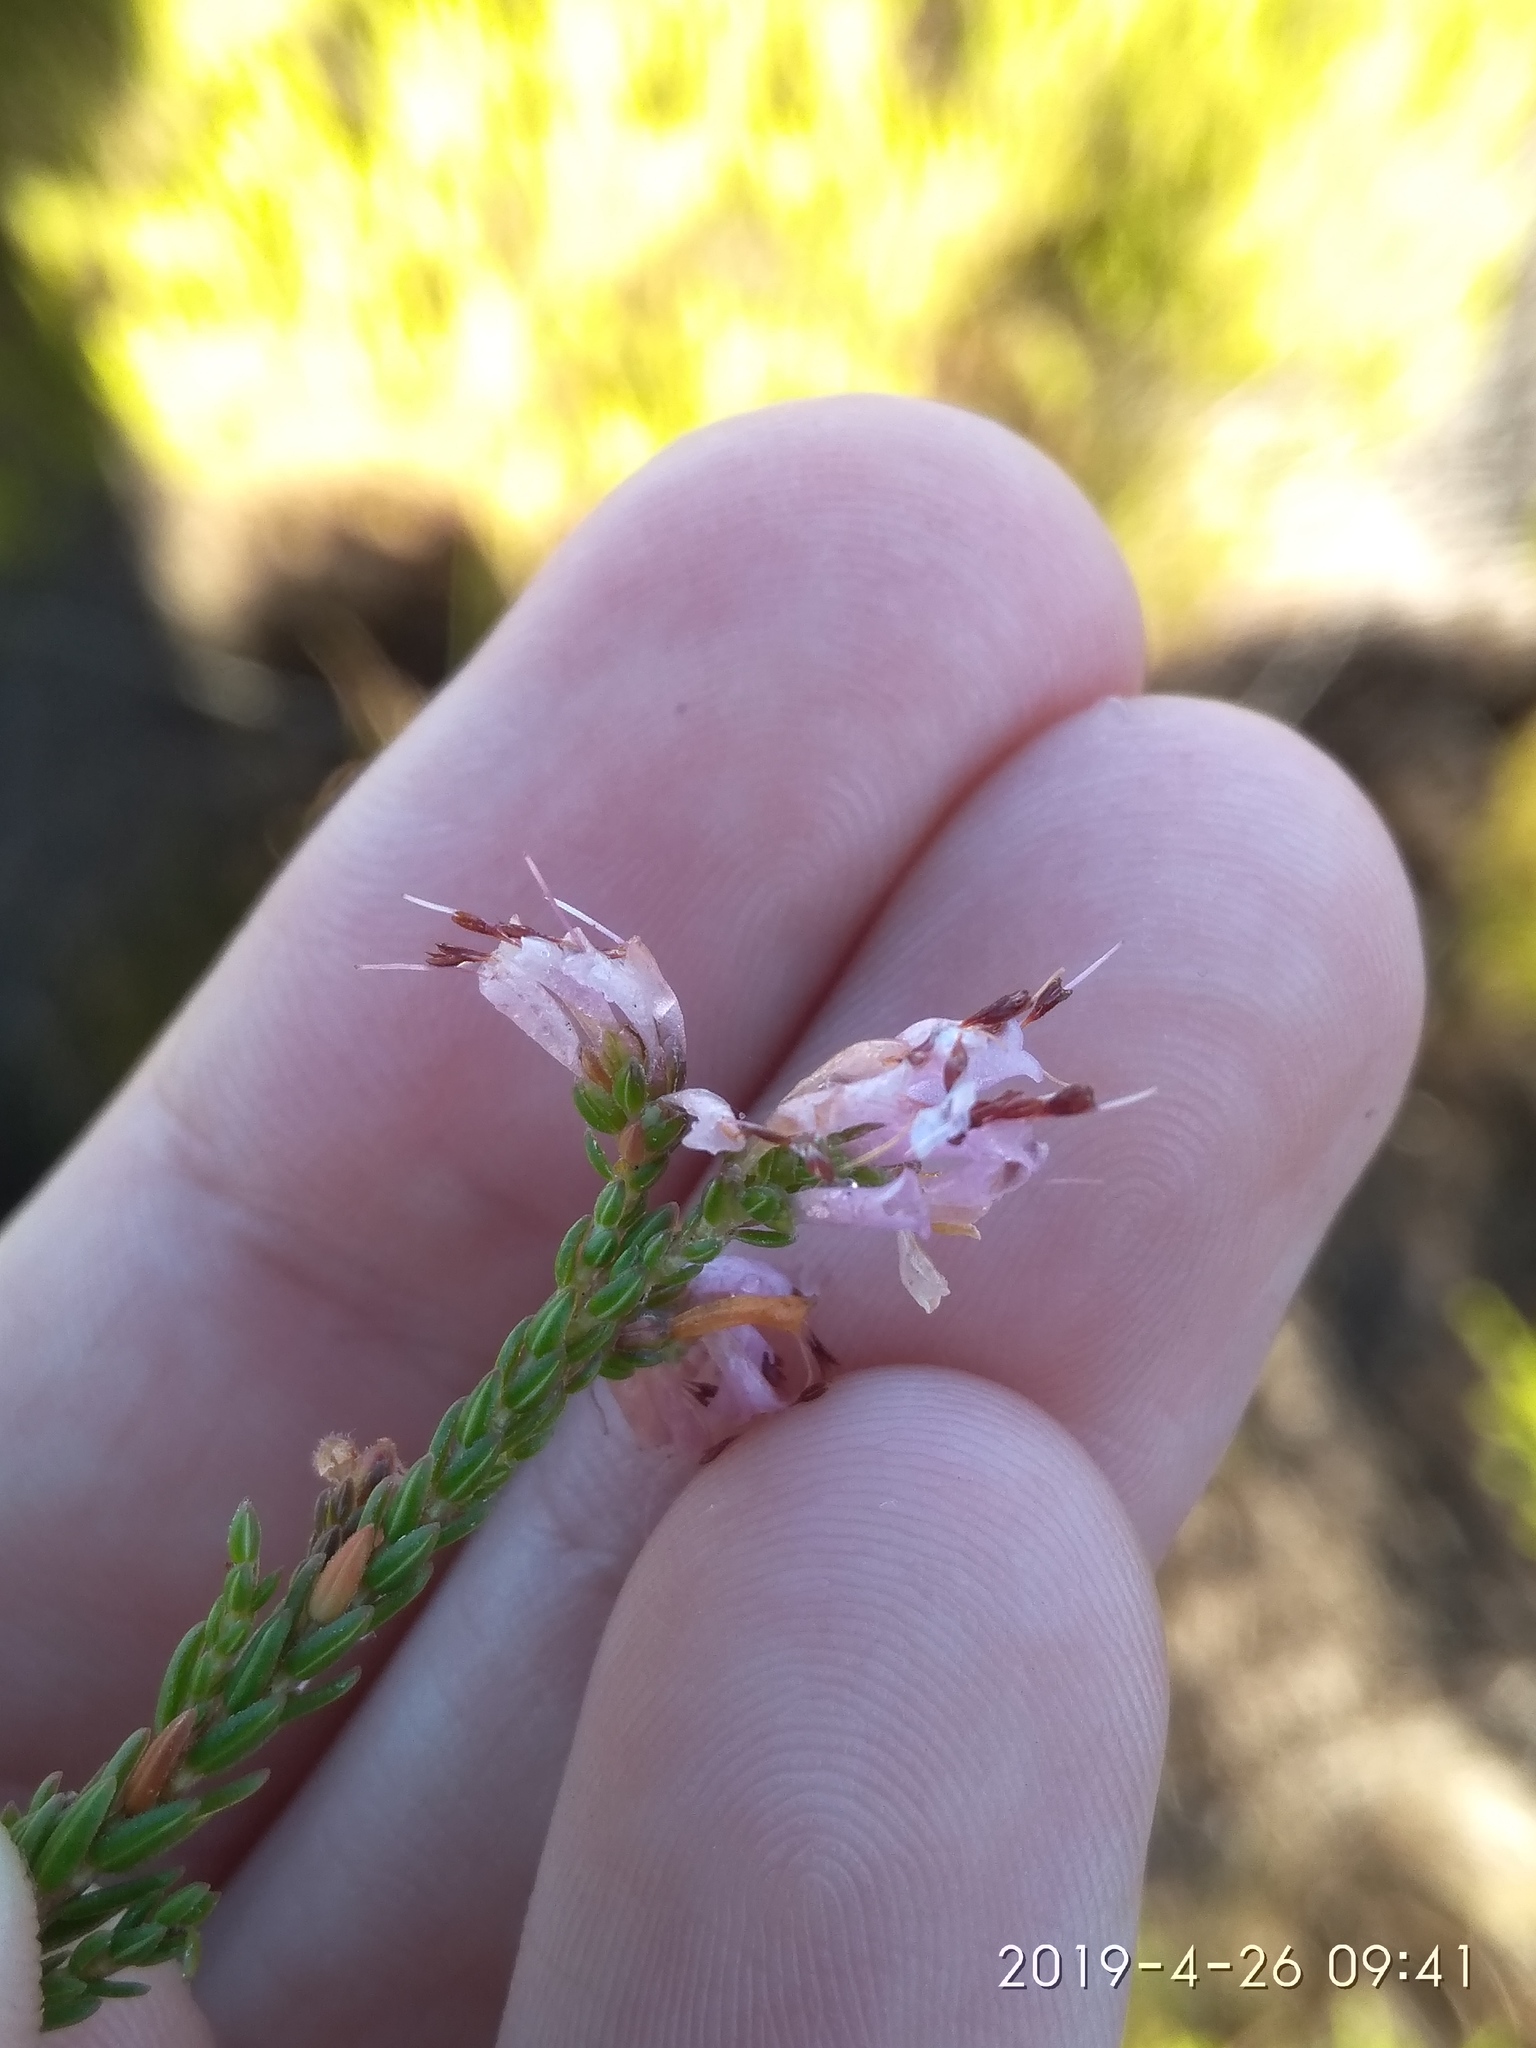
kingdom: Plantae
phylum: Tracheophyta
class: Magnoliopsida
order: Ericales
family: Ericaceae
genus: Erica
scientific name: Erica labialis
